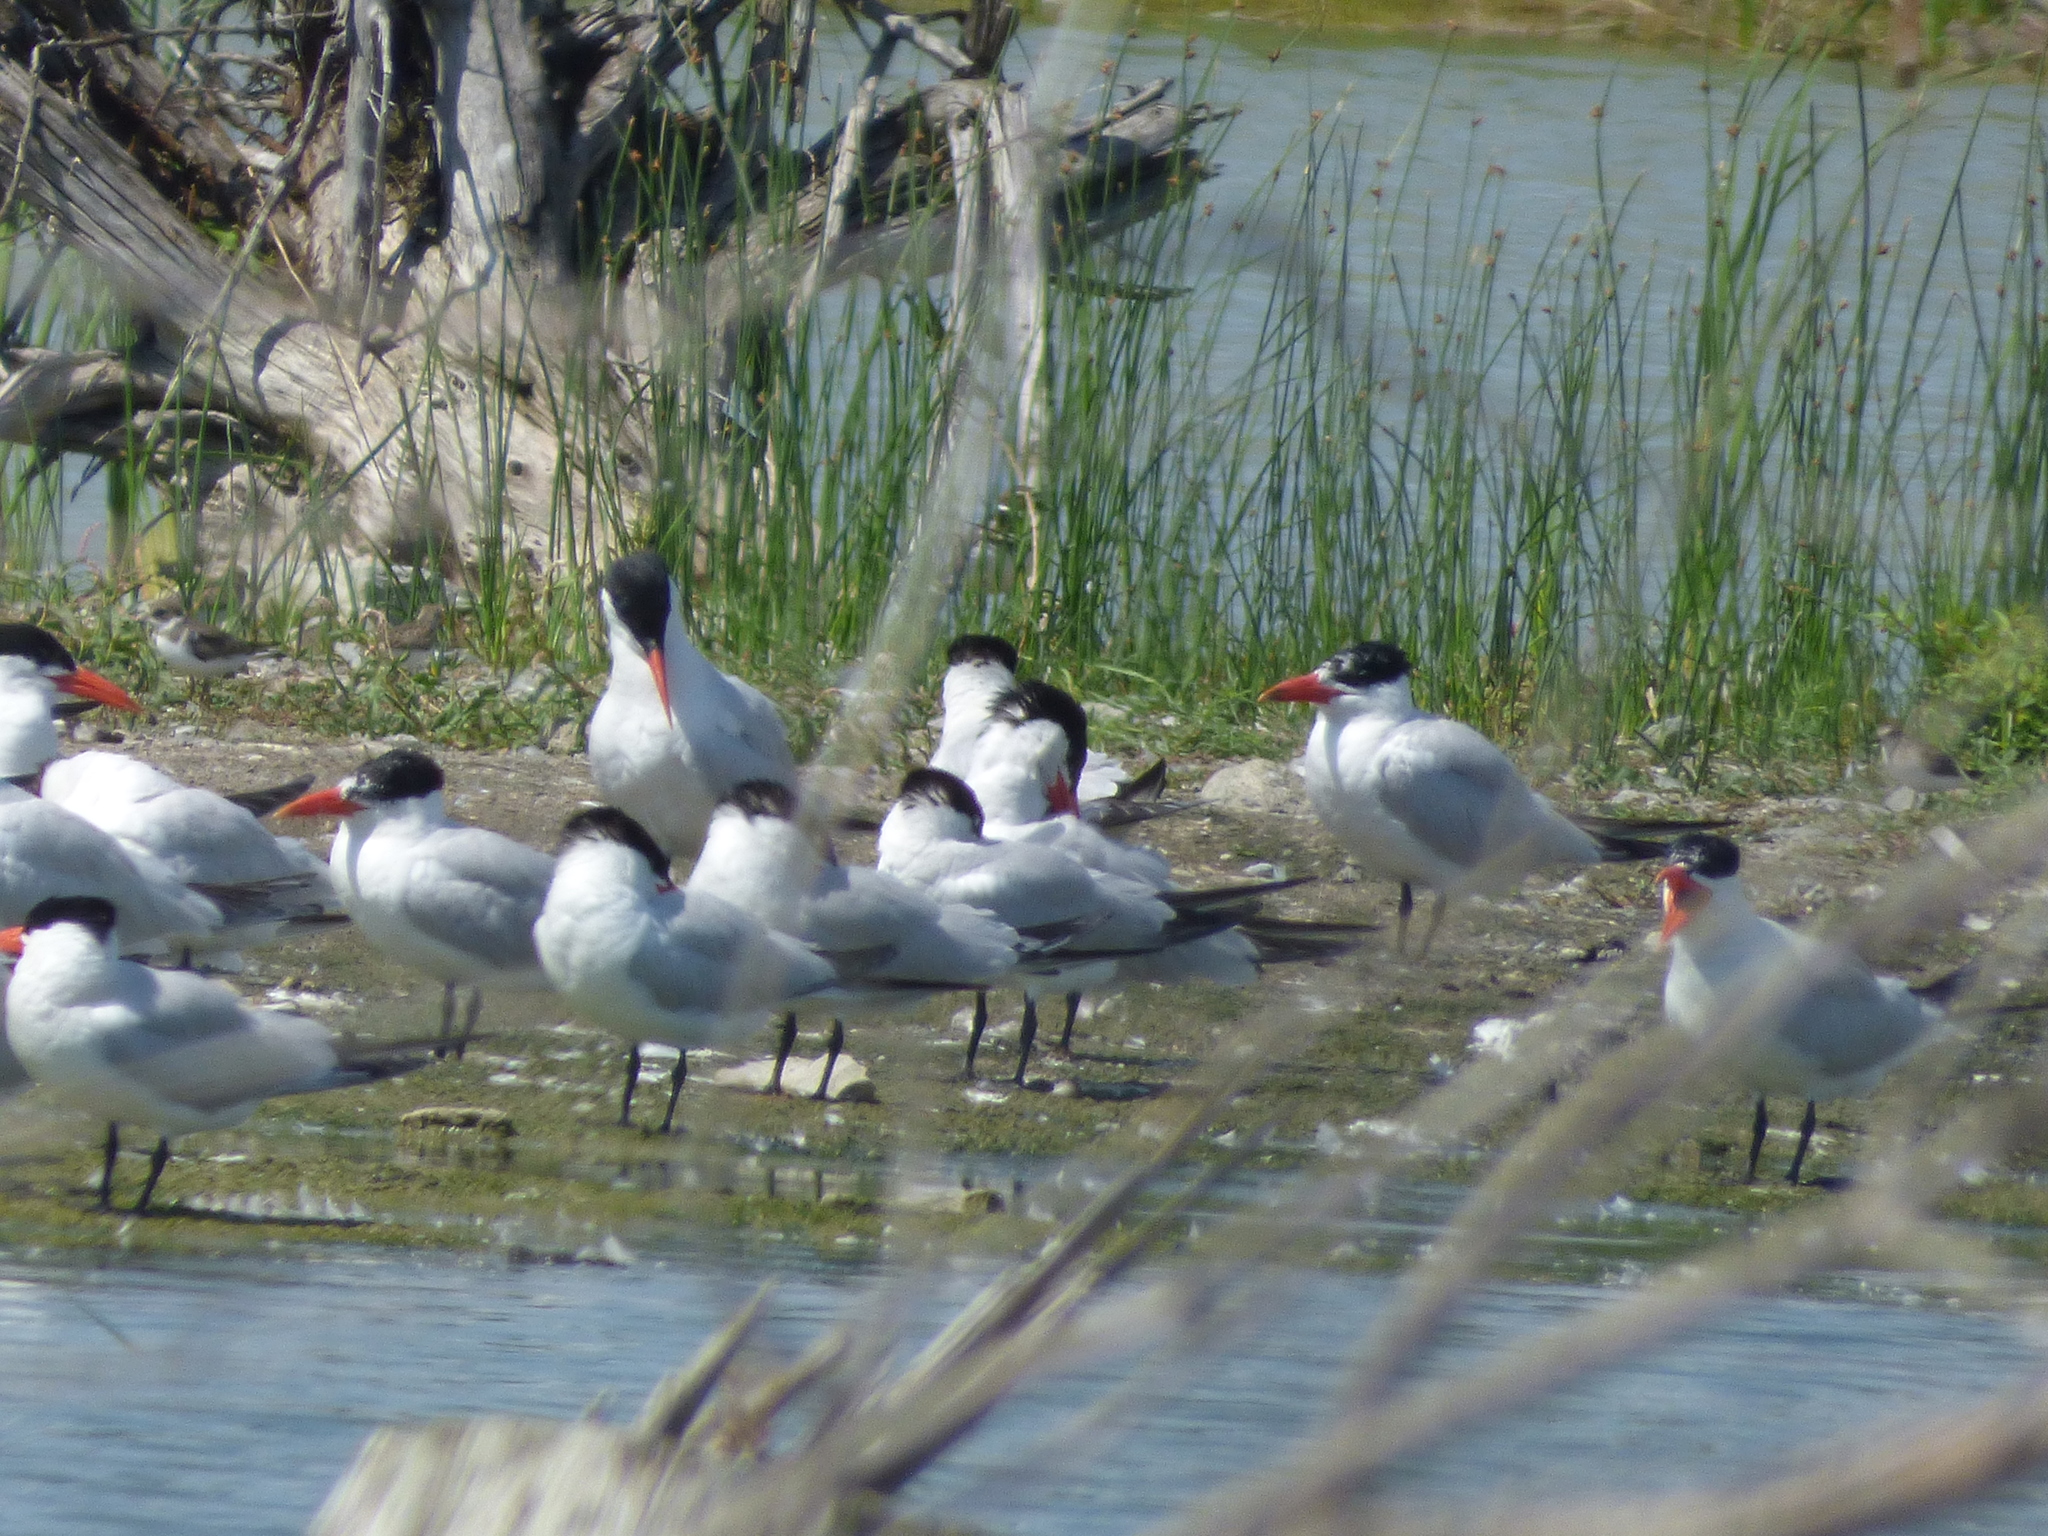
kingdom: Animalia
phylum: Chordata
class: Aves
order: Charadriiformes
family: Laridae
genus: Hydroprogne
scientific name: Hydroprogne caspia
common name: Caspian tern
